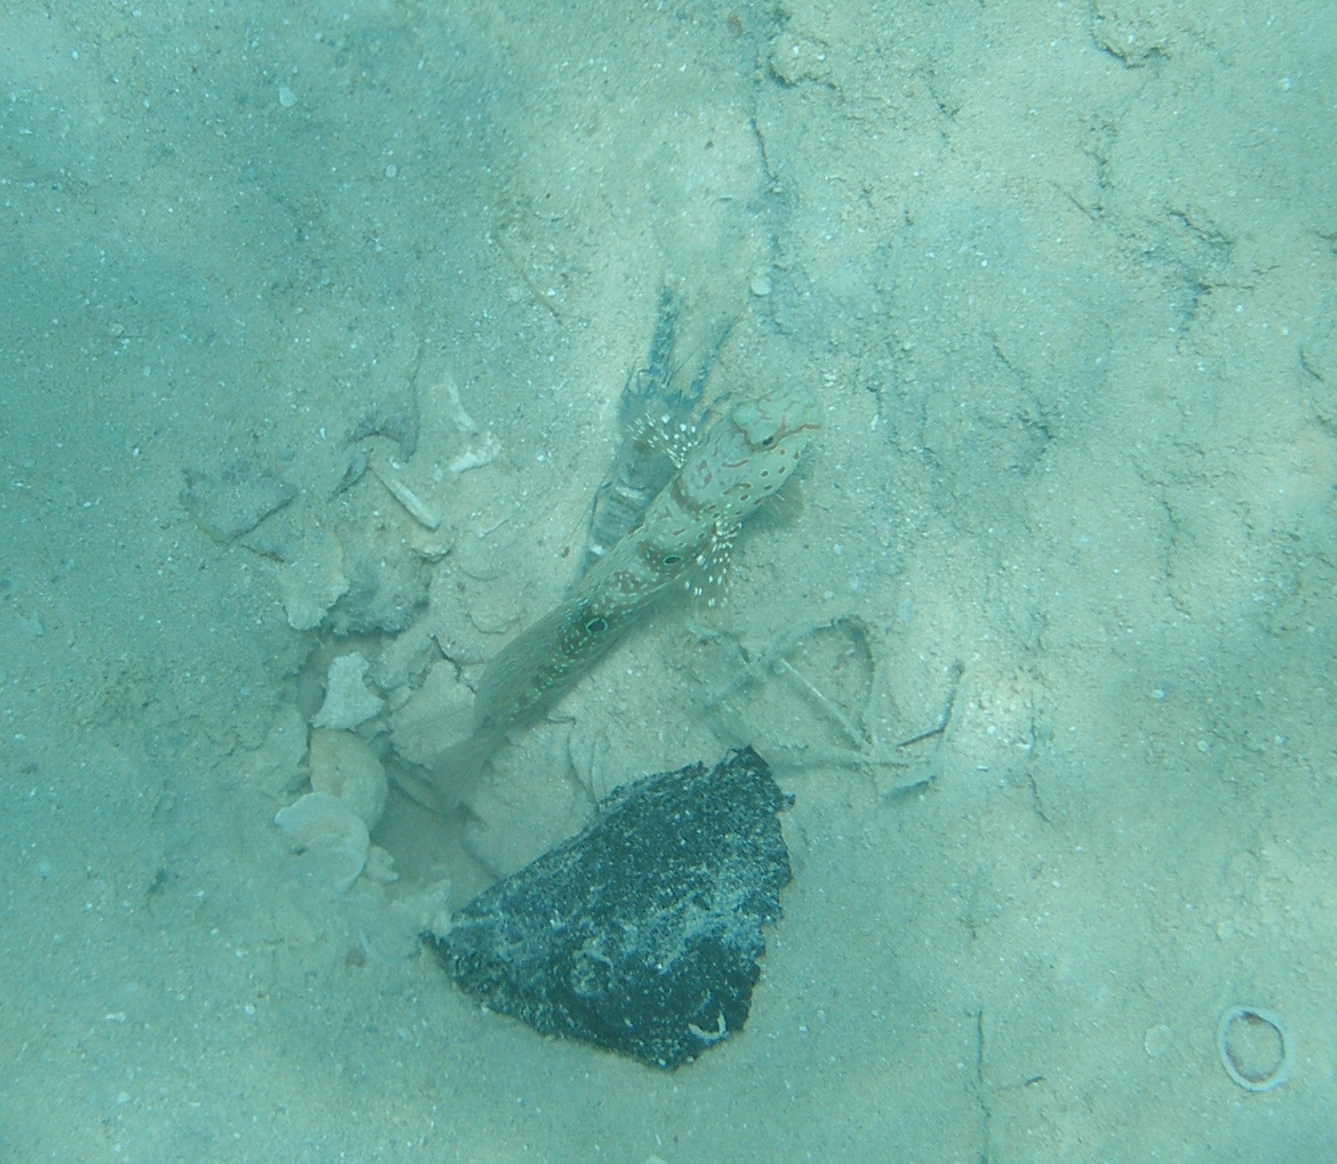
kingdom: Animalia
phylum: Chordata
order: Perciformes
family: Gobiidae
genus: Cryptocentrus
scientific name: Cryptocentrus caeruleopunctatus
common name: Blue-and-red-spotted goby
